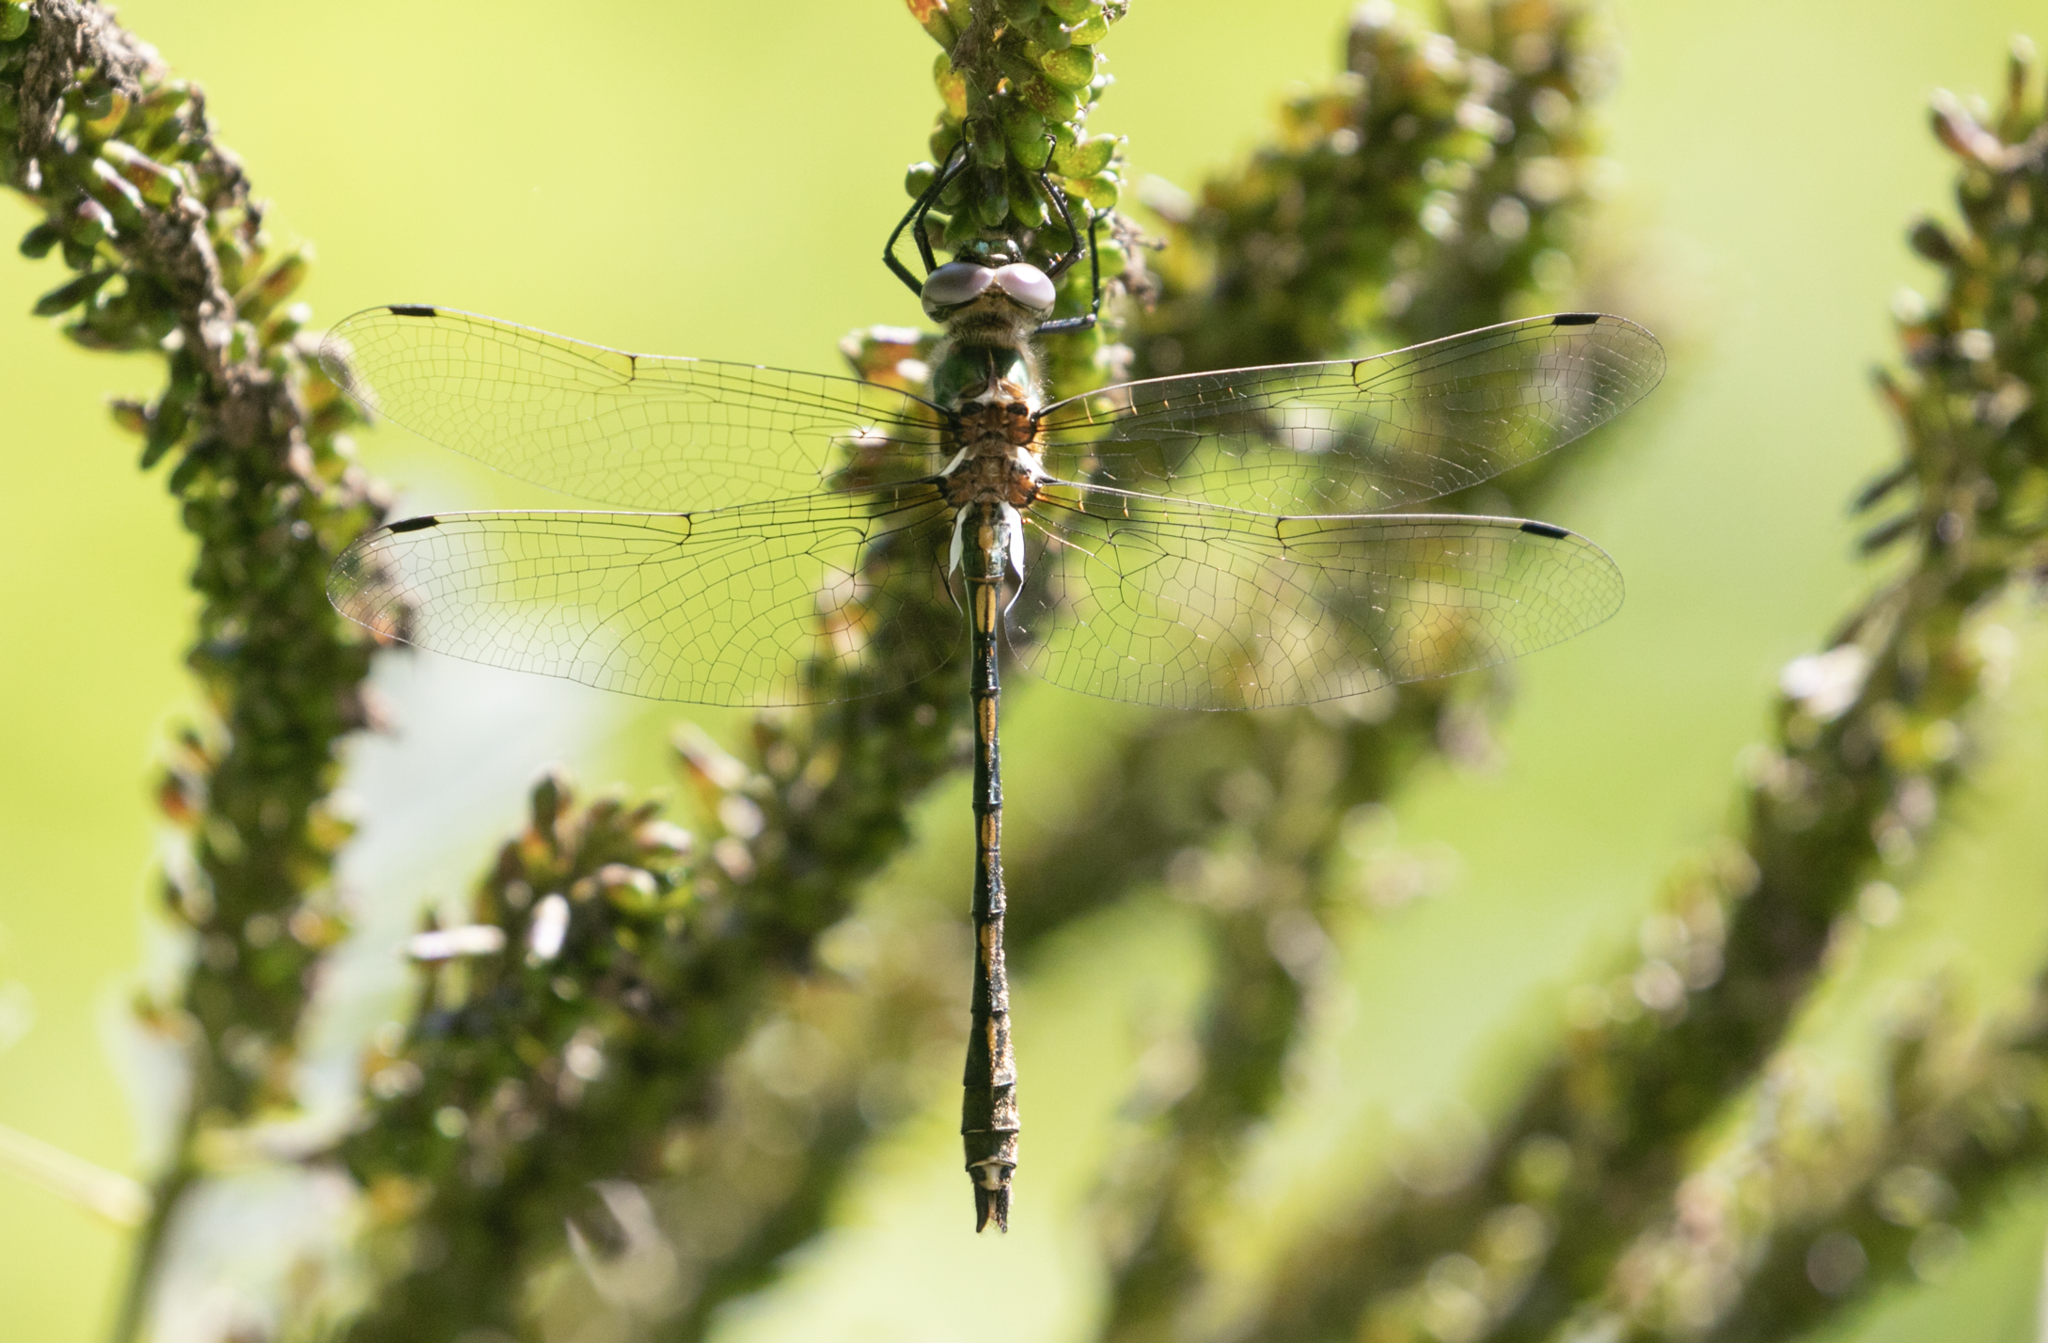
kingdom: Animalia
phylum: Arthropoda
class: Insecta
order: Odonata
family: Corduliidae
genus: Oxygastra
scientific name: Oxygastra curtisii
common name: Orange-spotted emerald
